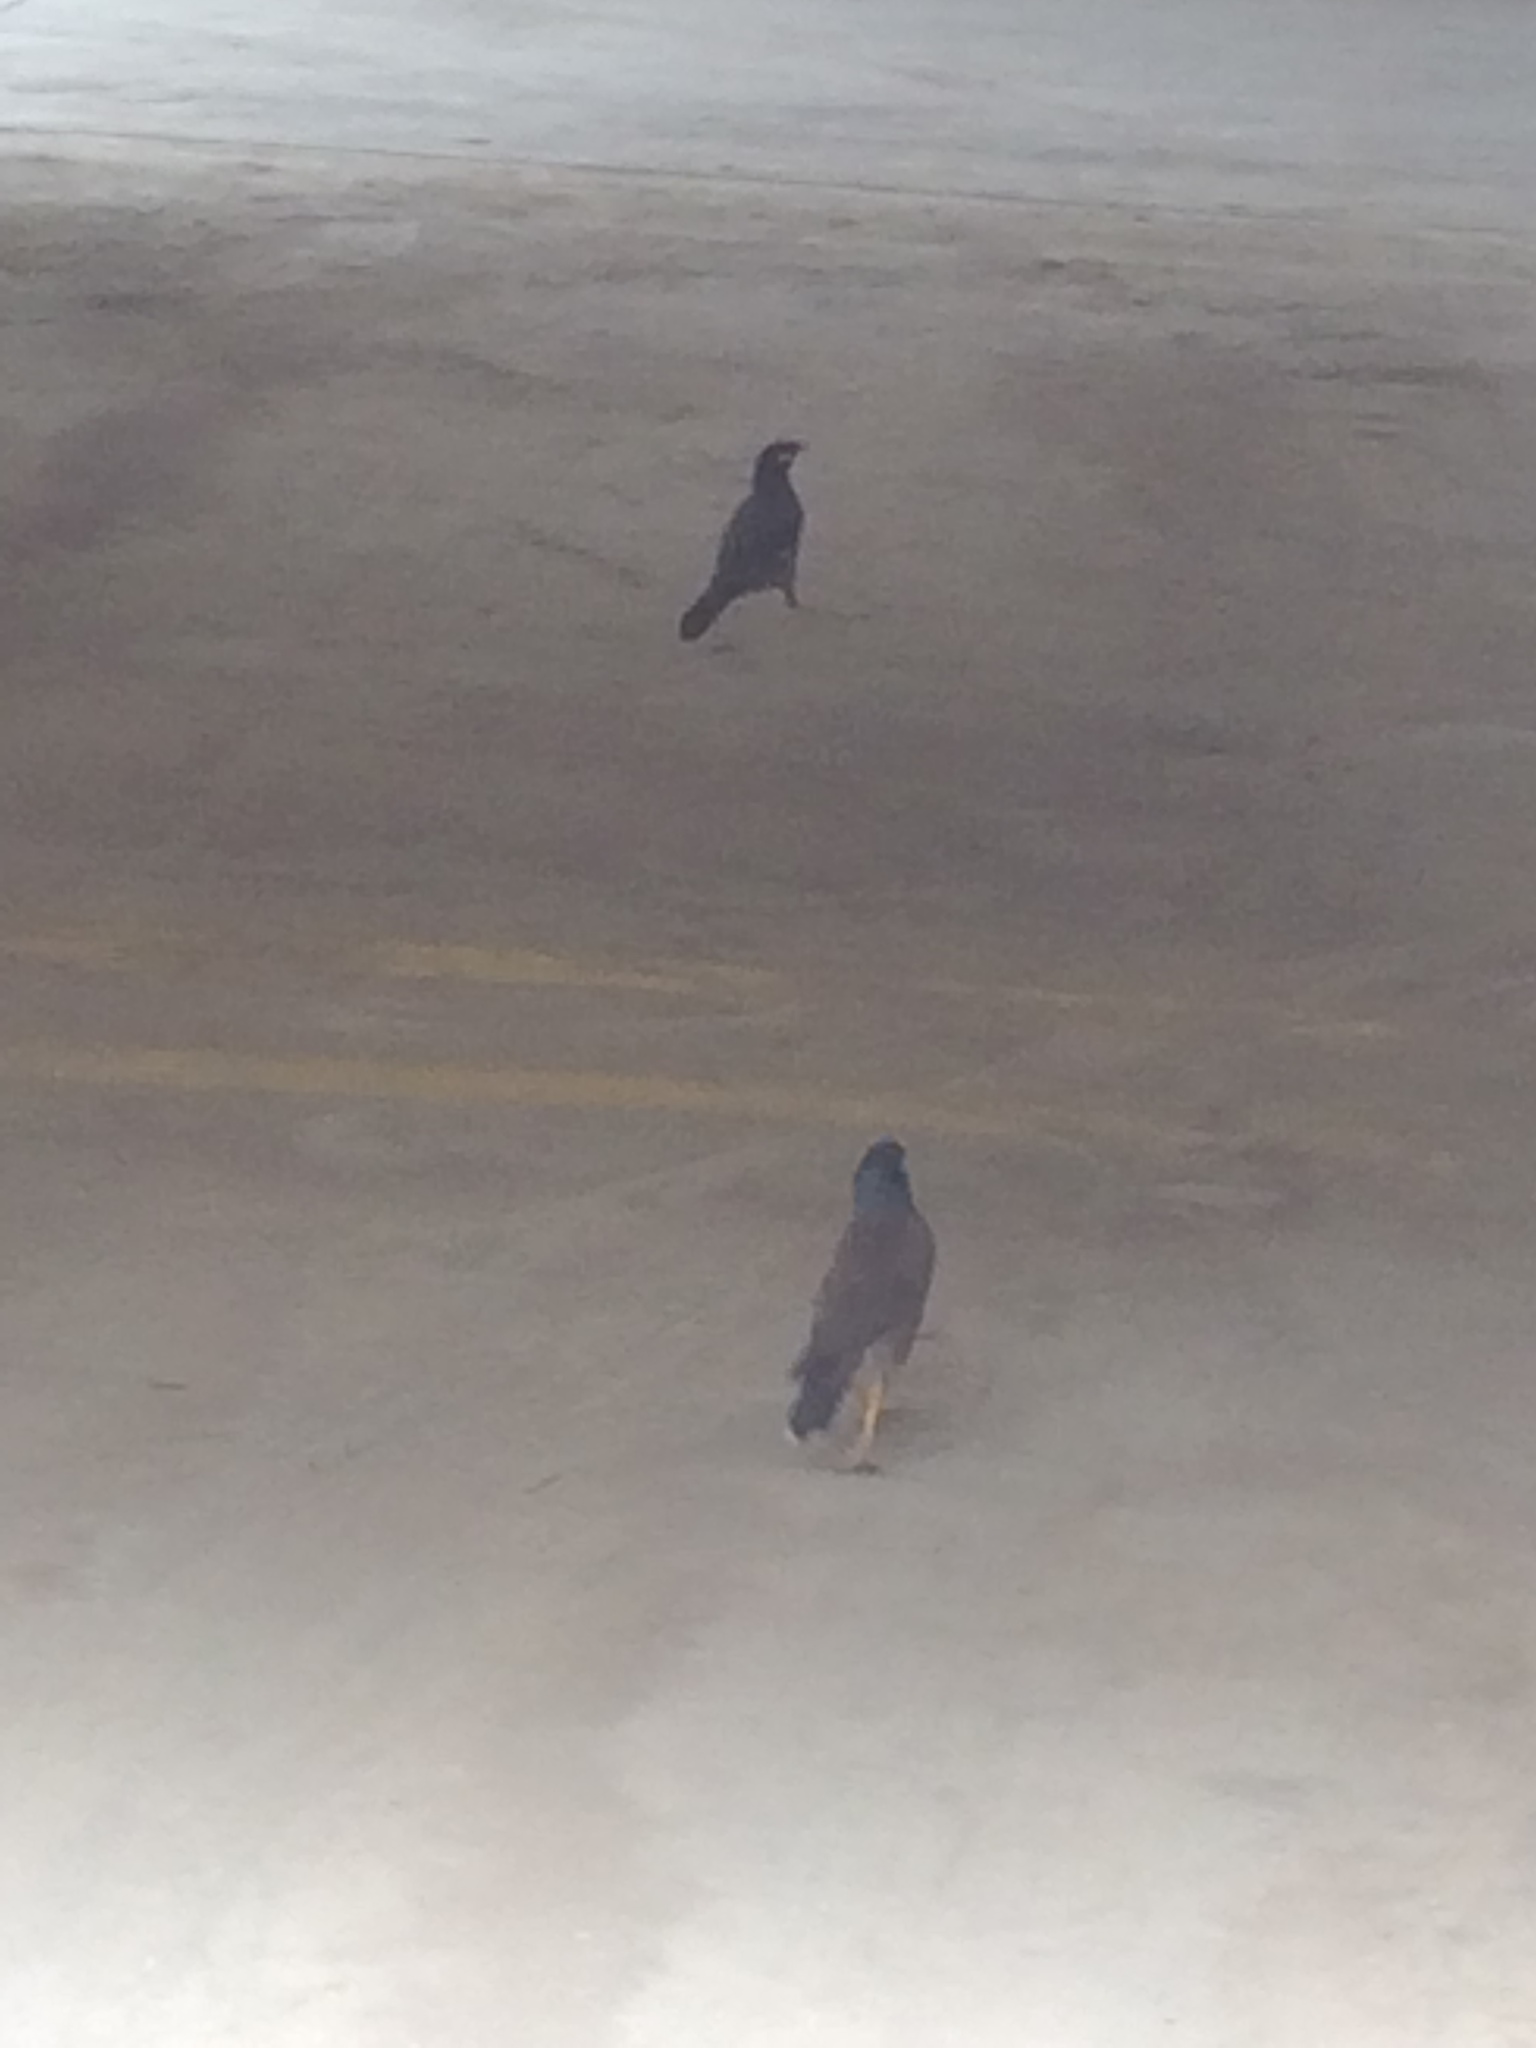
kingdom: Animalia
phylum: Chordata
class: Aves
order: Passeriformes
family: Sturnidae
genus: Acridotheres
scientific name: Acridotheres tristis
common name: Common myna
